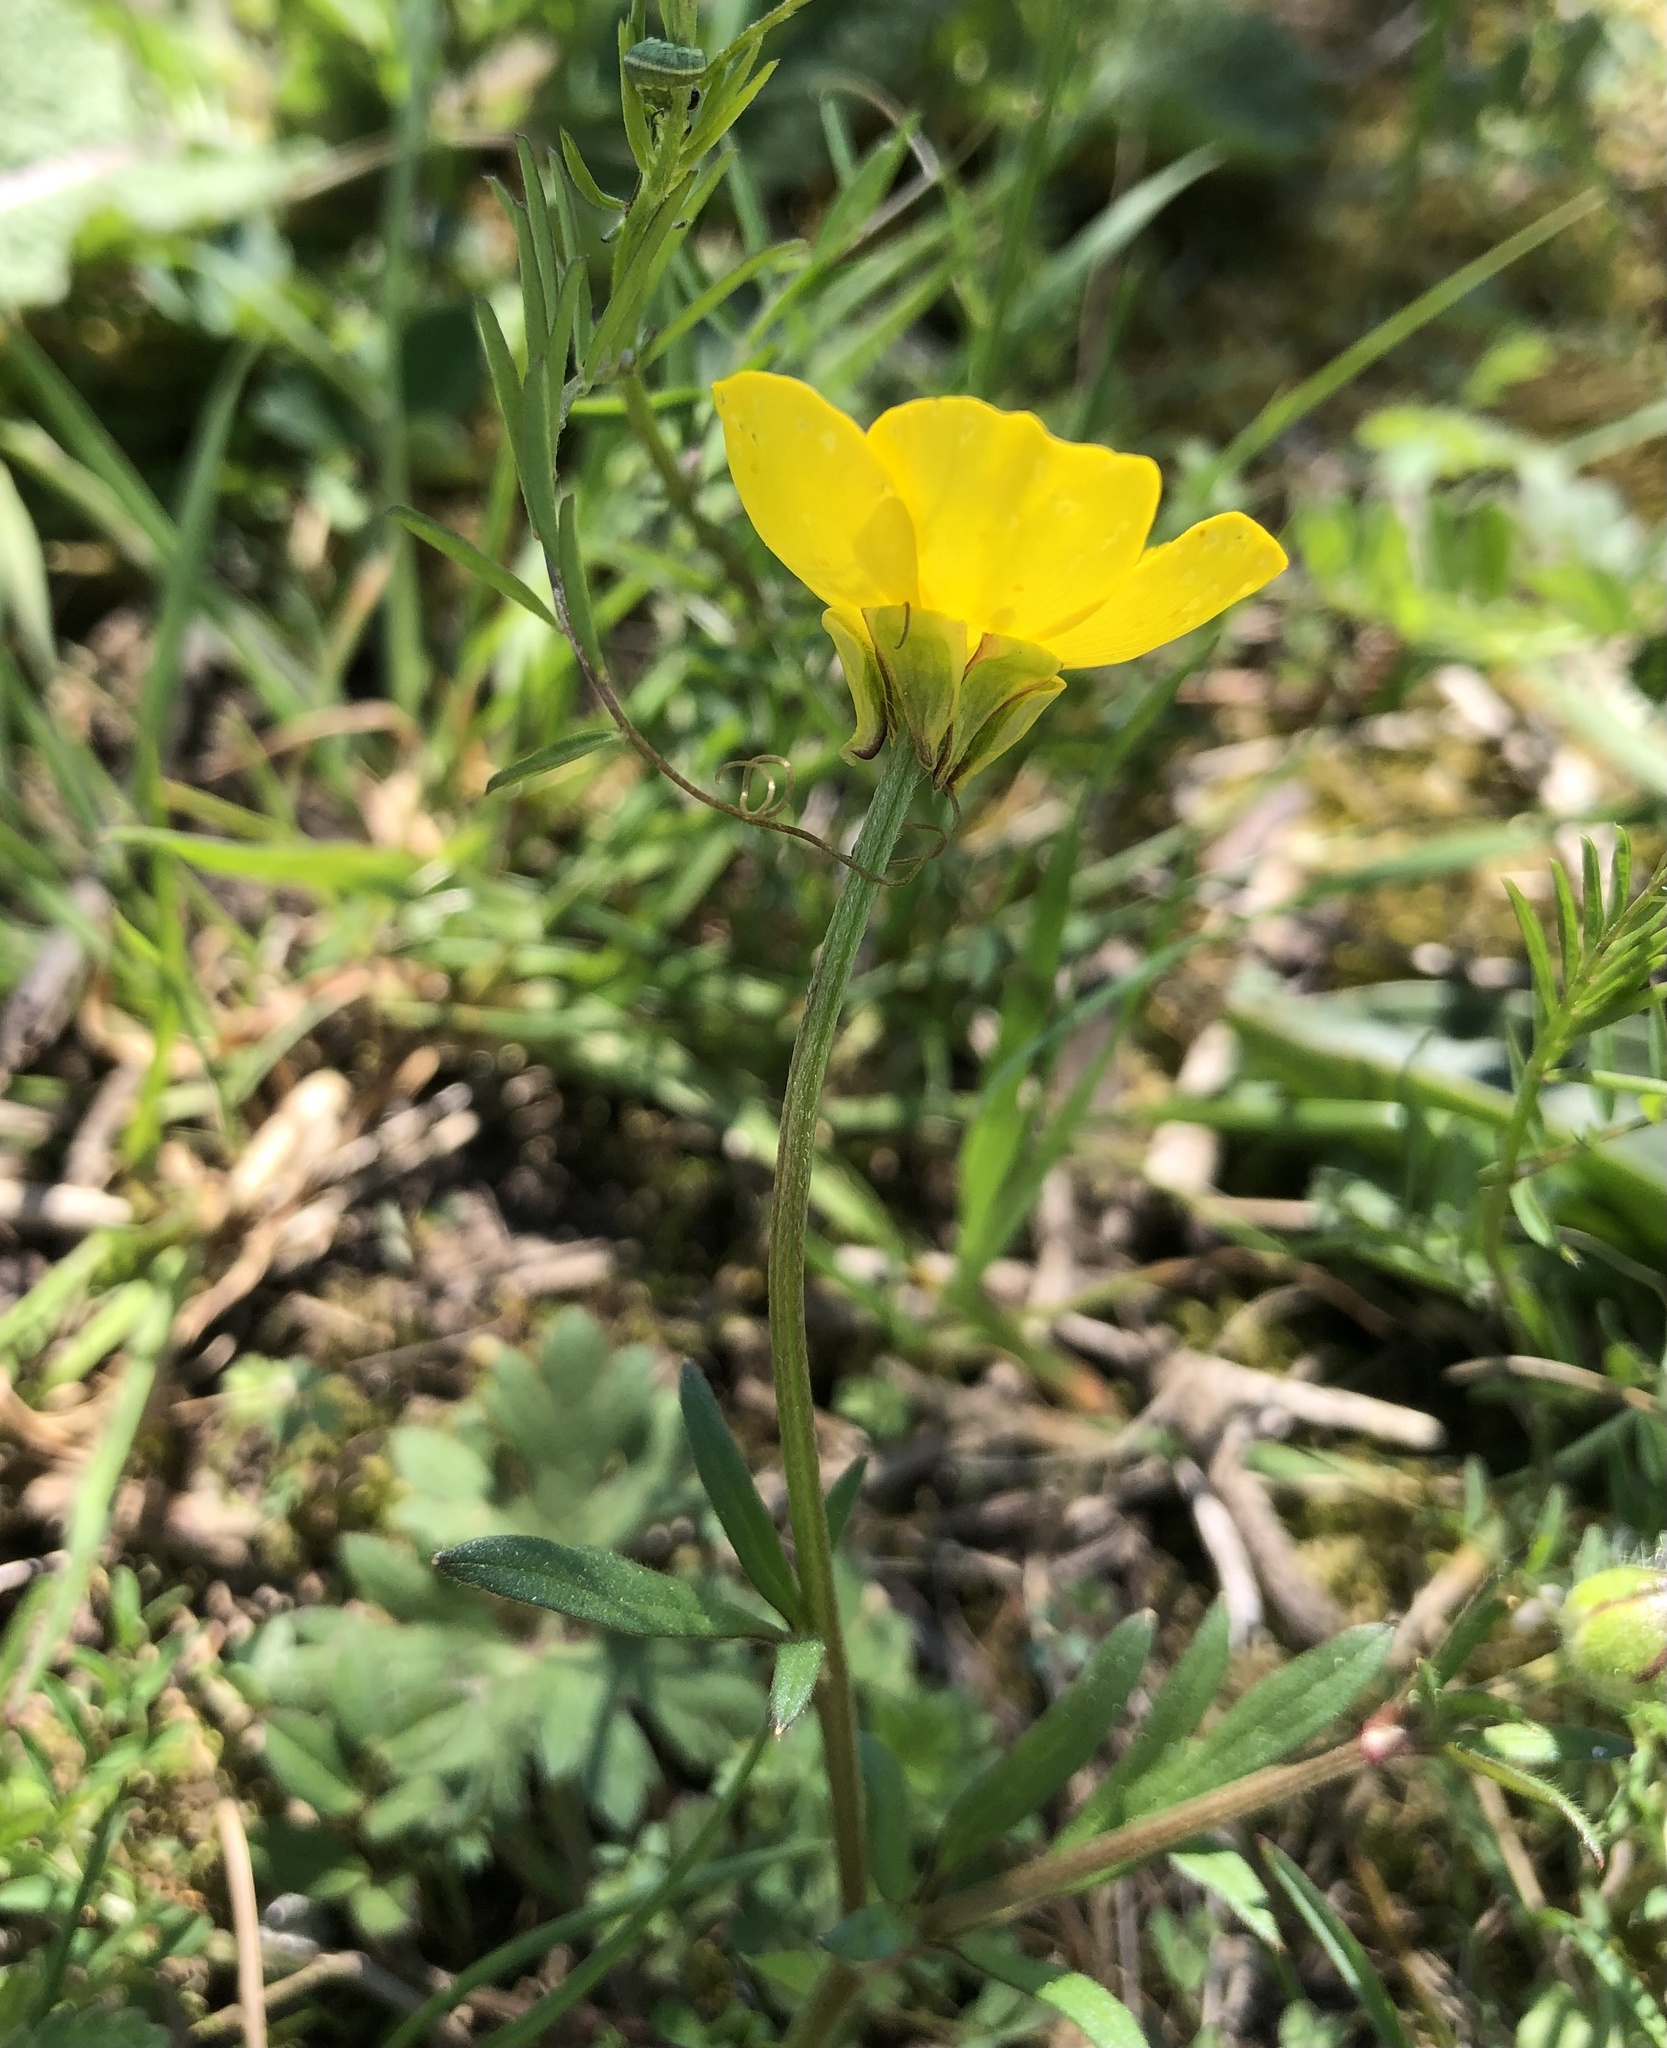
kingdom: Plantae
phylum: Tracheophyta
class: Magnoliopsida
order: Ranunculales
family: Ranunculaceae
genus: Ranunculus
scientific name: Ranunculus bulbosus
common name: Bulbous buttercup
